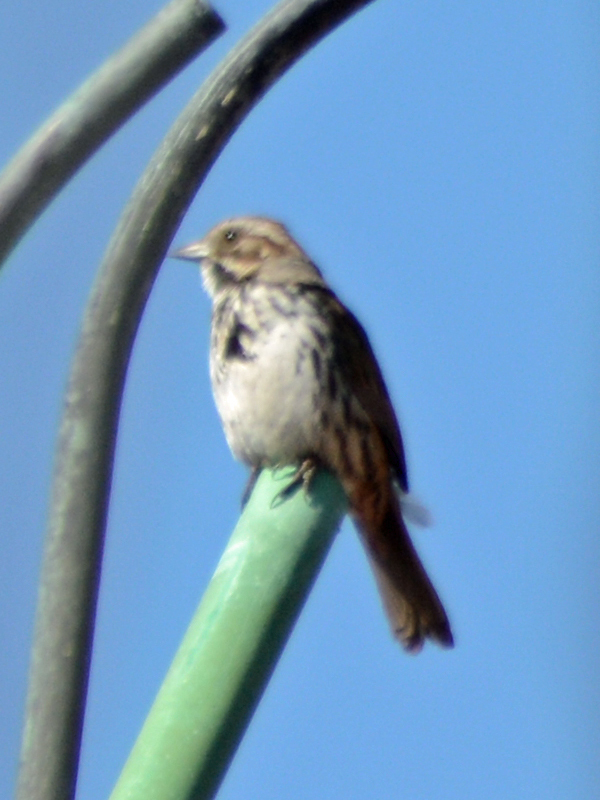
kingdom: Animalia
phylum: Chordata
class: Aves
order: Passeriformes
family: Passerellidae
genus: Melospiza
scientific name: Melospiza melodia
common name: Song sparrow
